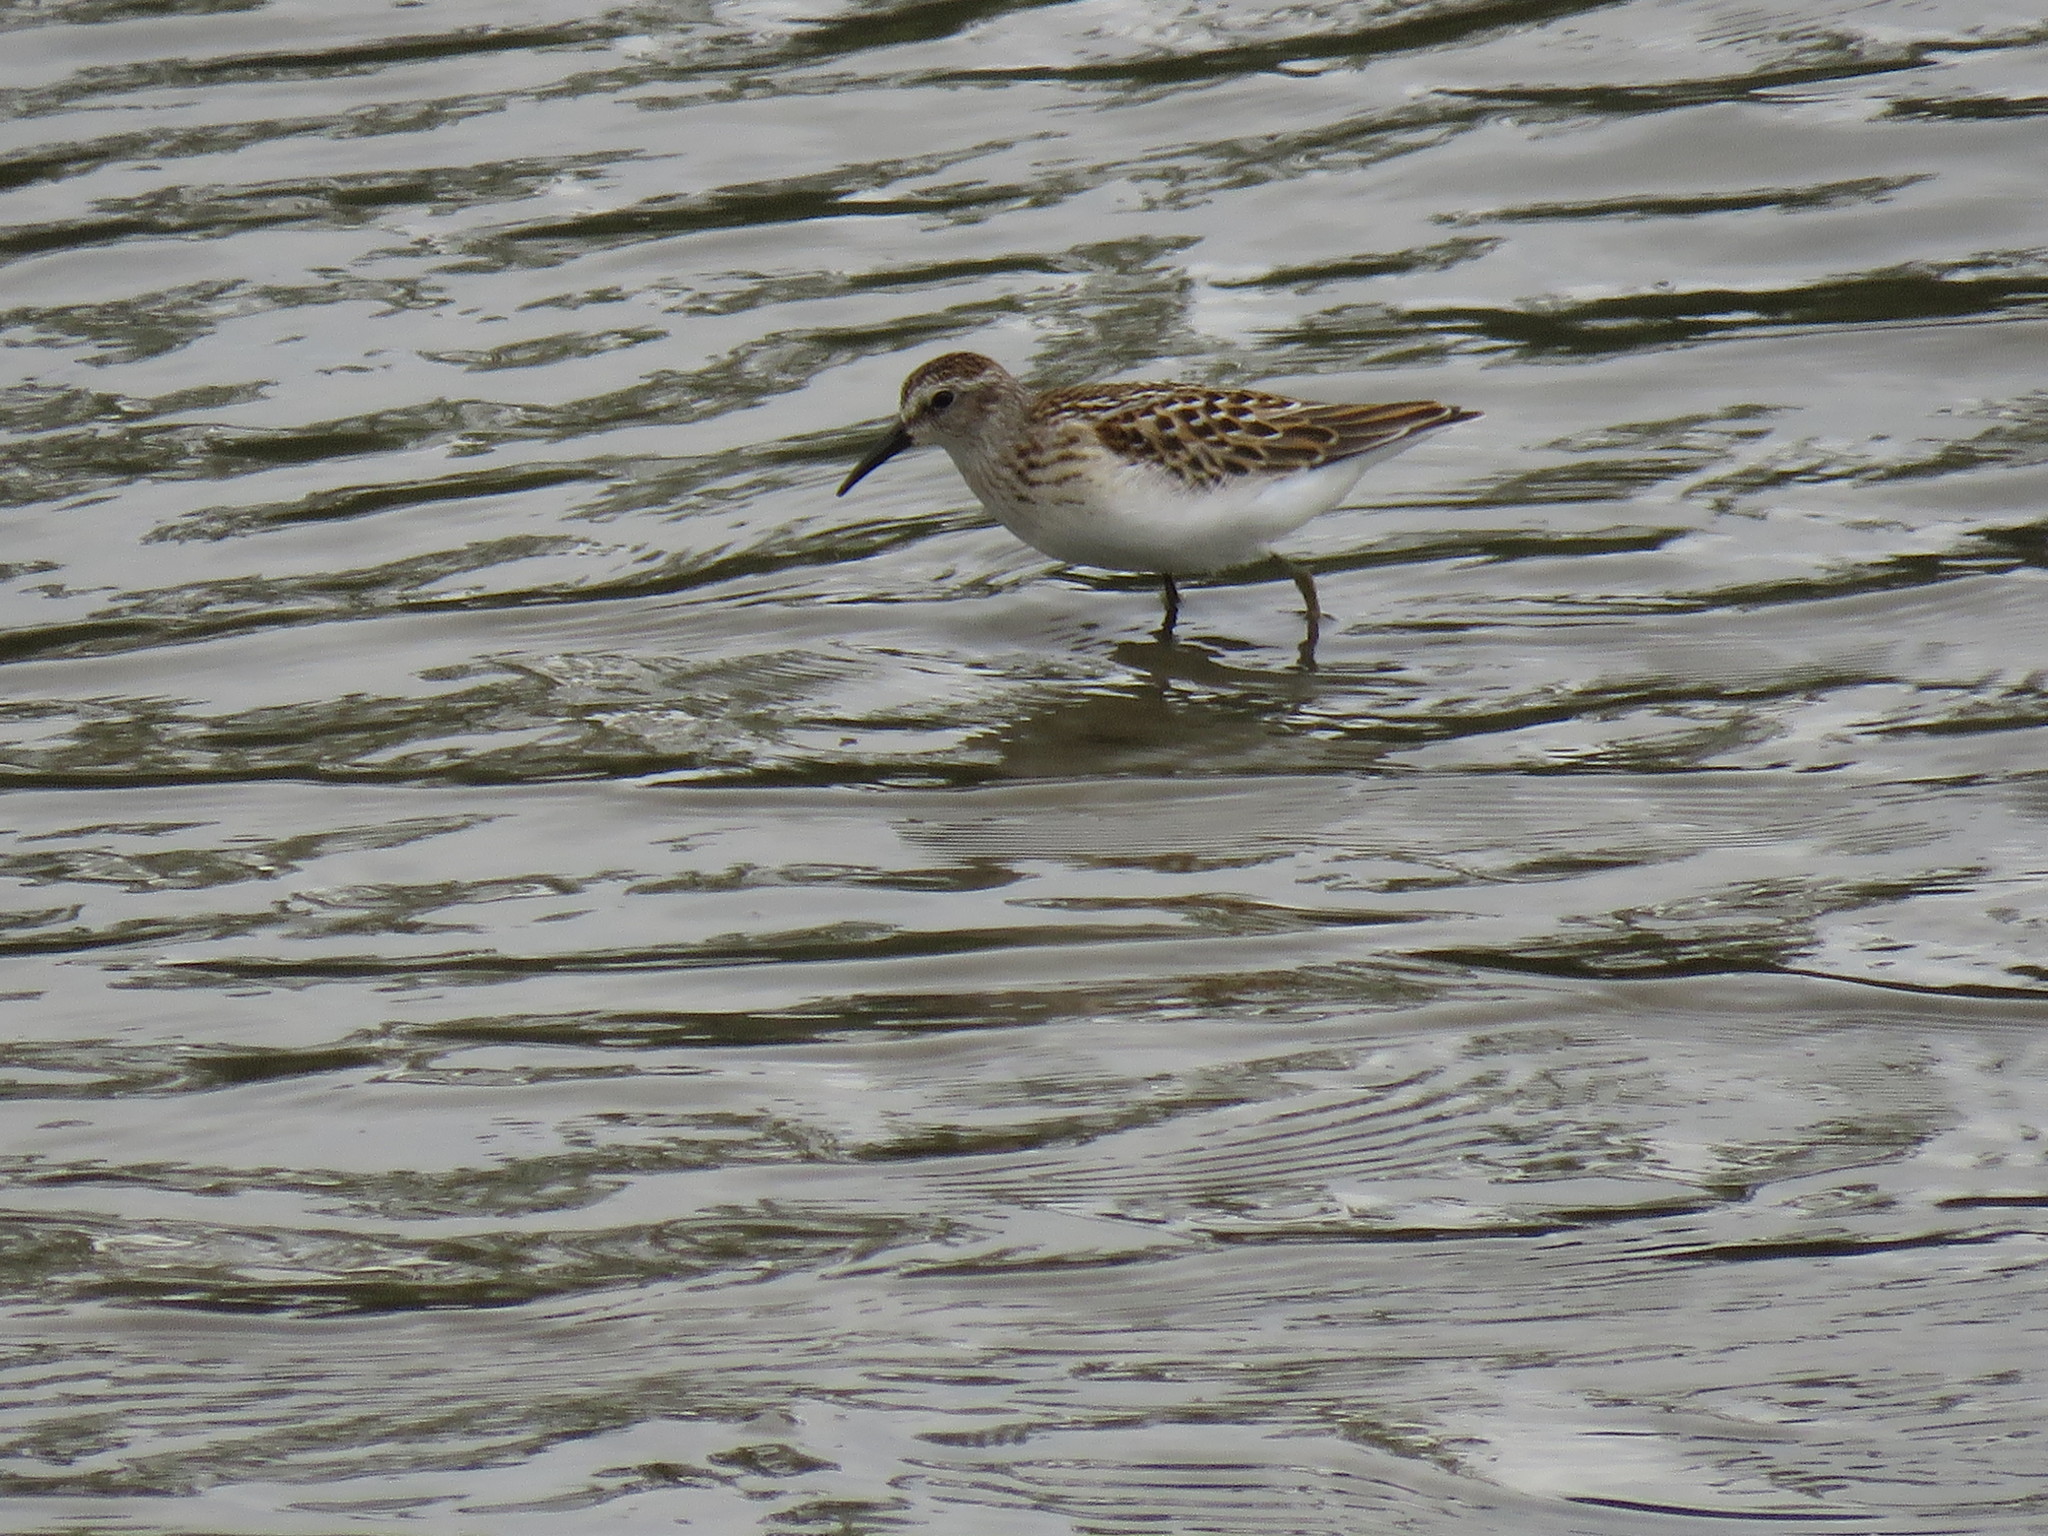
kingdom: Animalia
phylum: Chordata
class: Aves
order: Charadriiformes
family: Scolopacidae
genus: Calidris
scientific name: Calidris minutilla
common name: Least sandpiper
